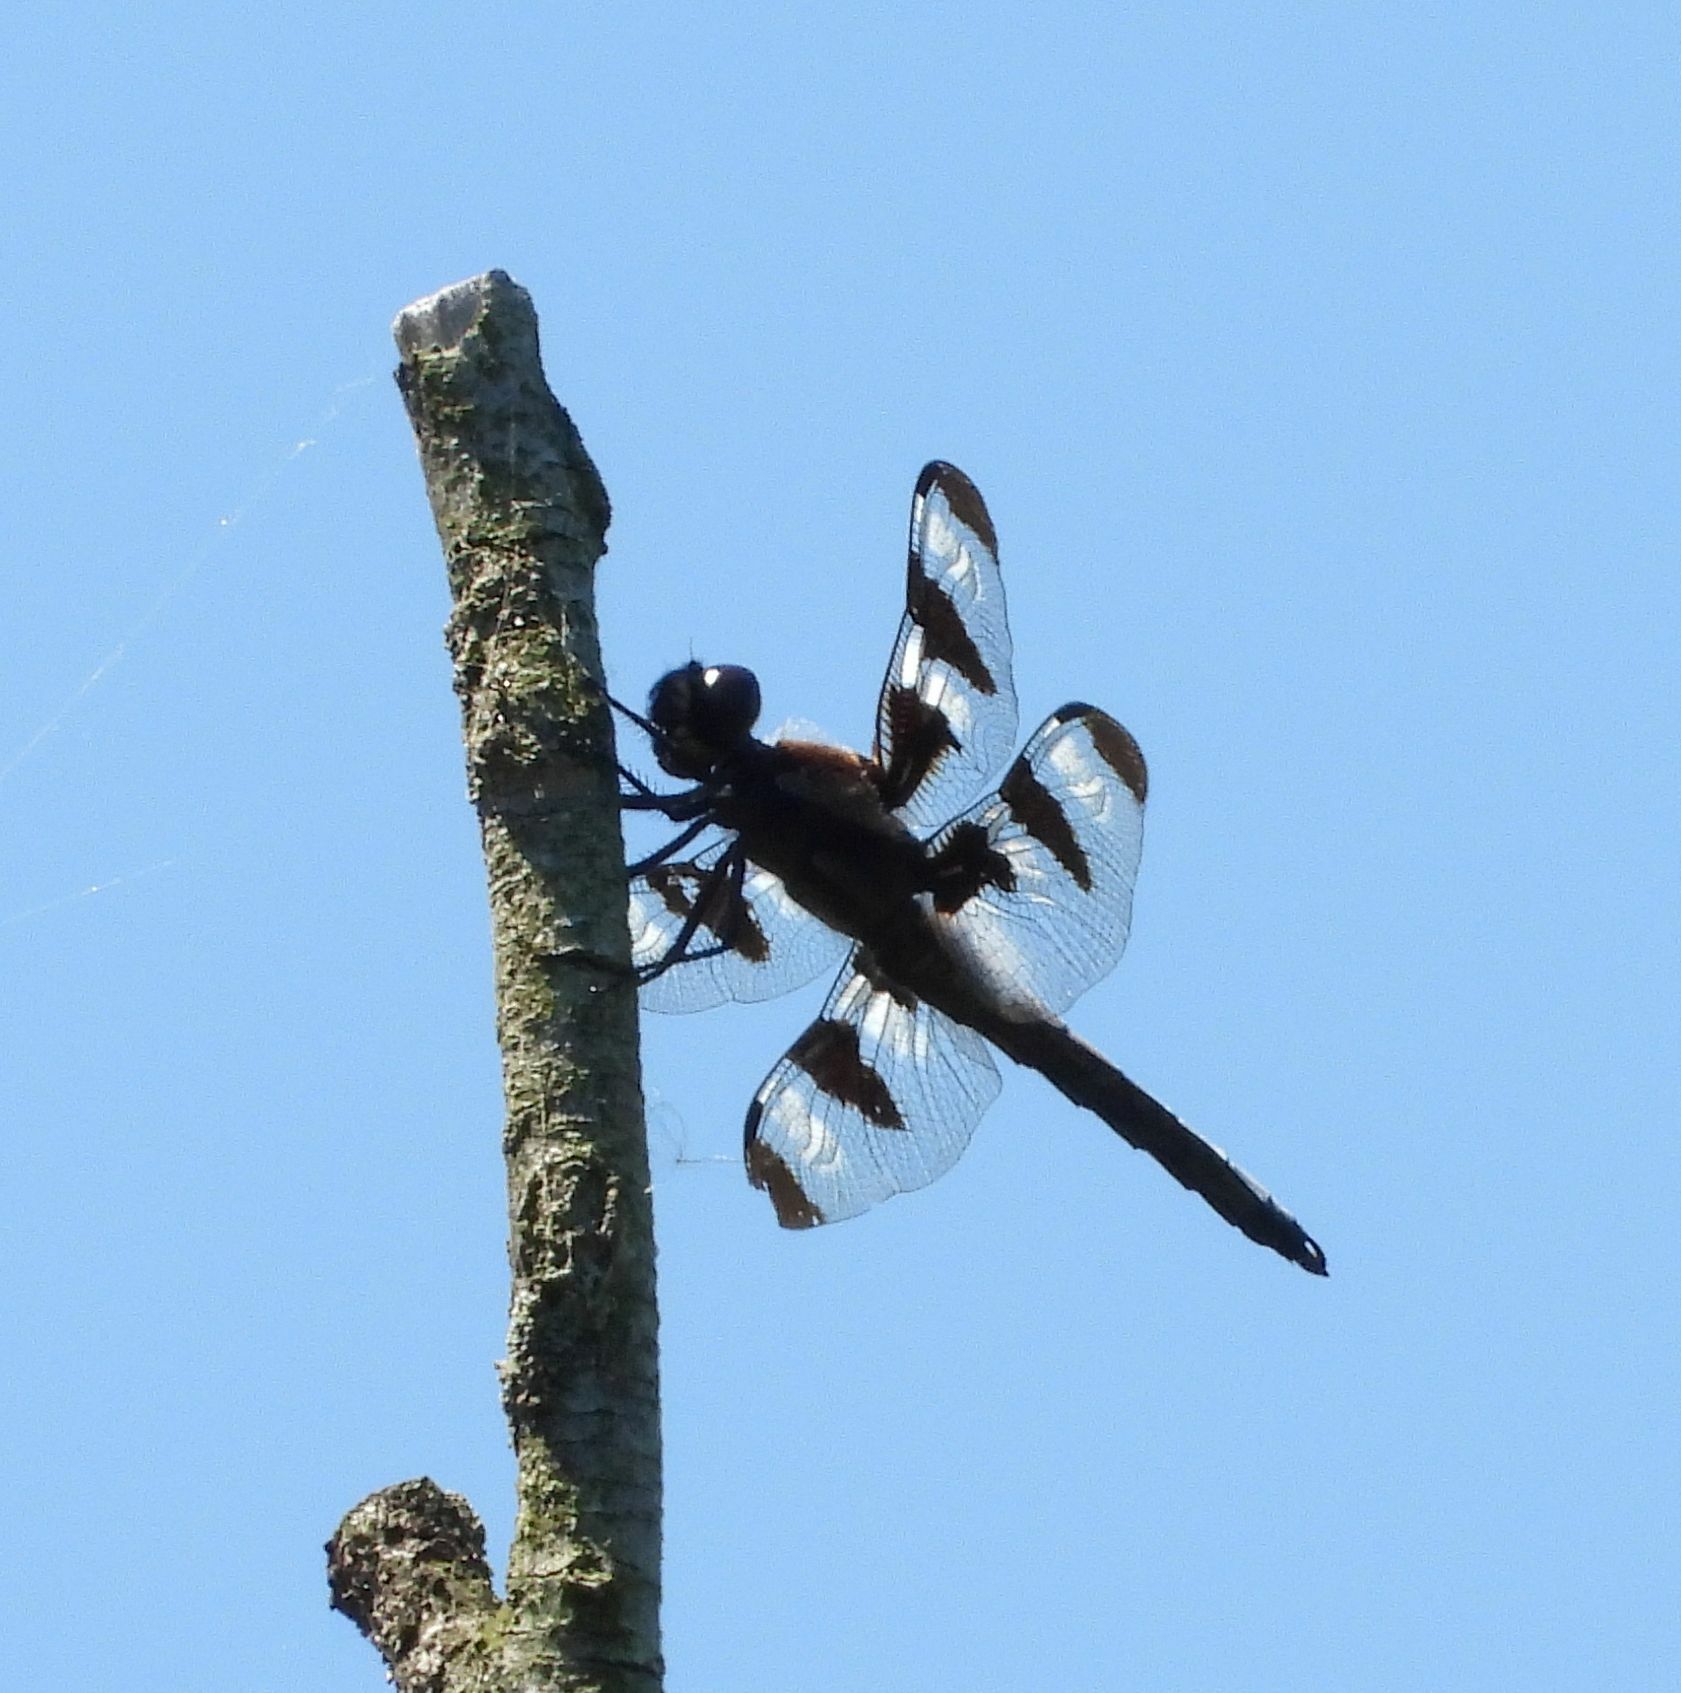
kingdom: Animalia
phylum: Arthropoda
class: Insecta
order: Odonata
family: Libellulidae
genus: Libellula
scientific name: Libellula pulchella
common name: Twelve-spotted skimmer
